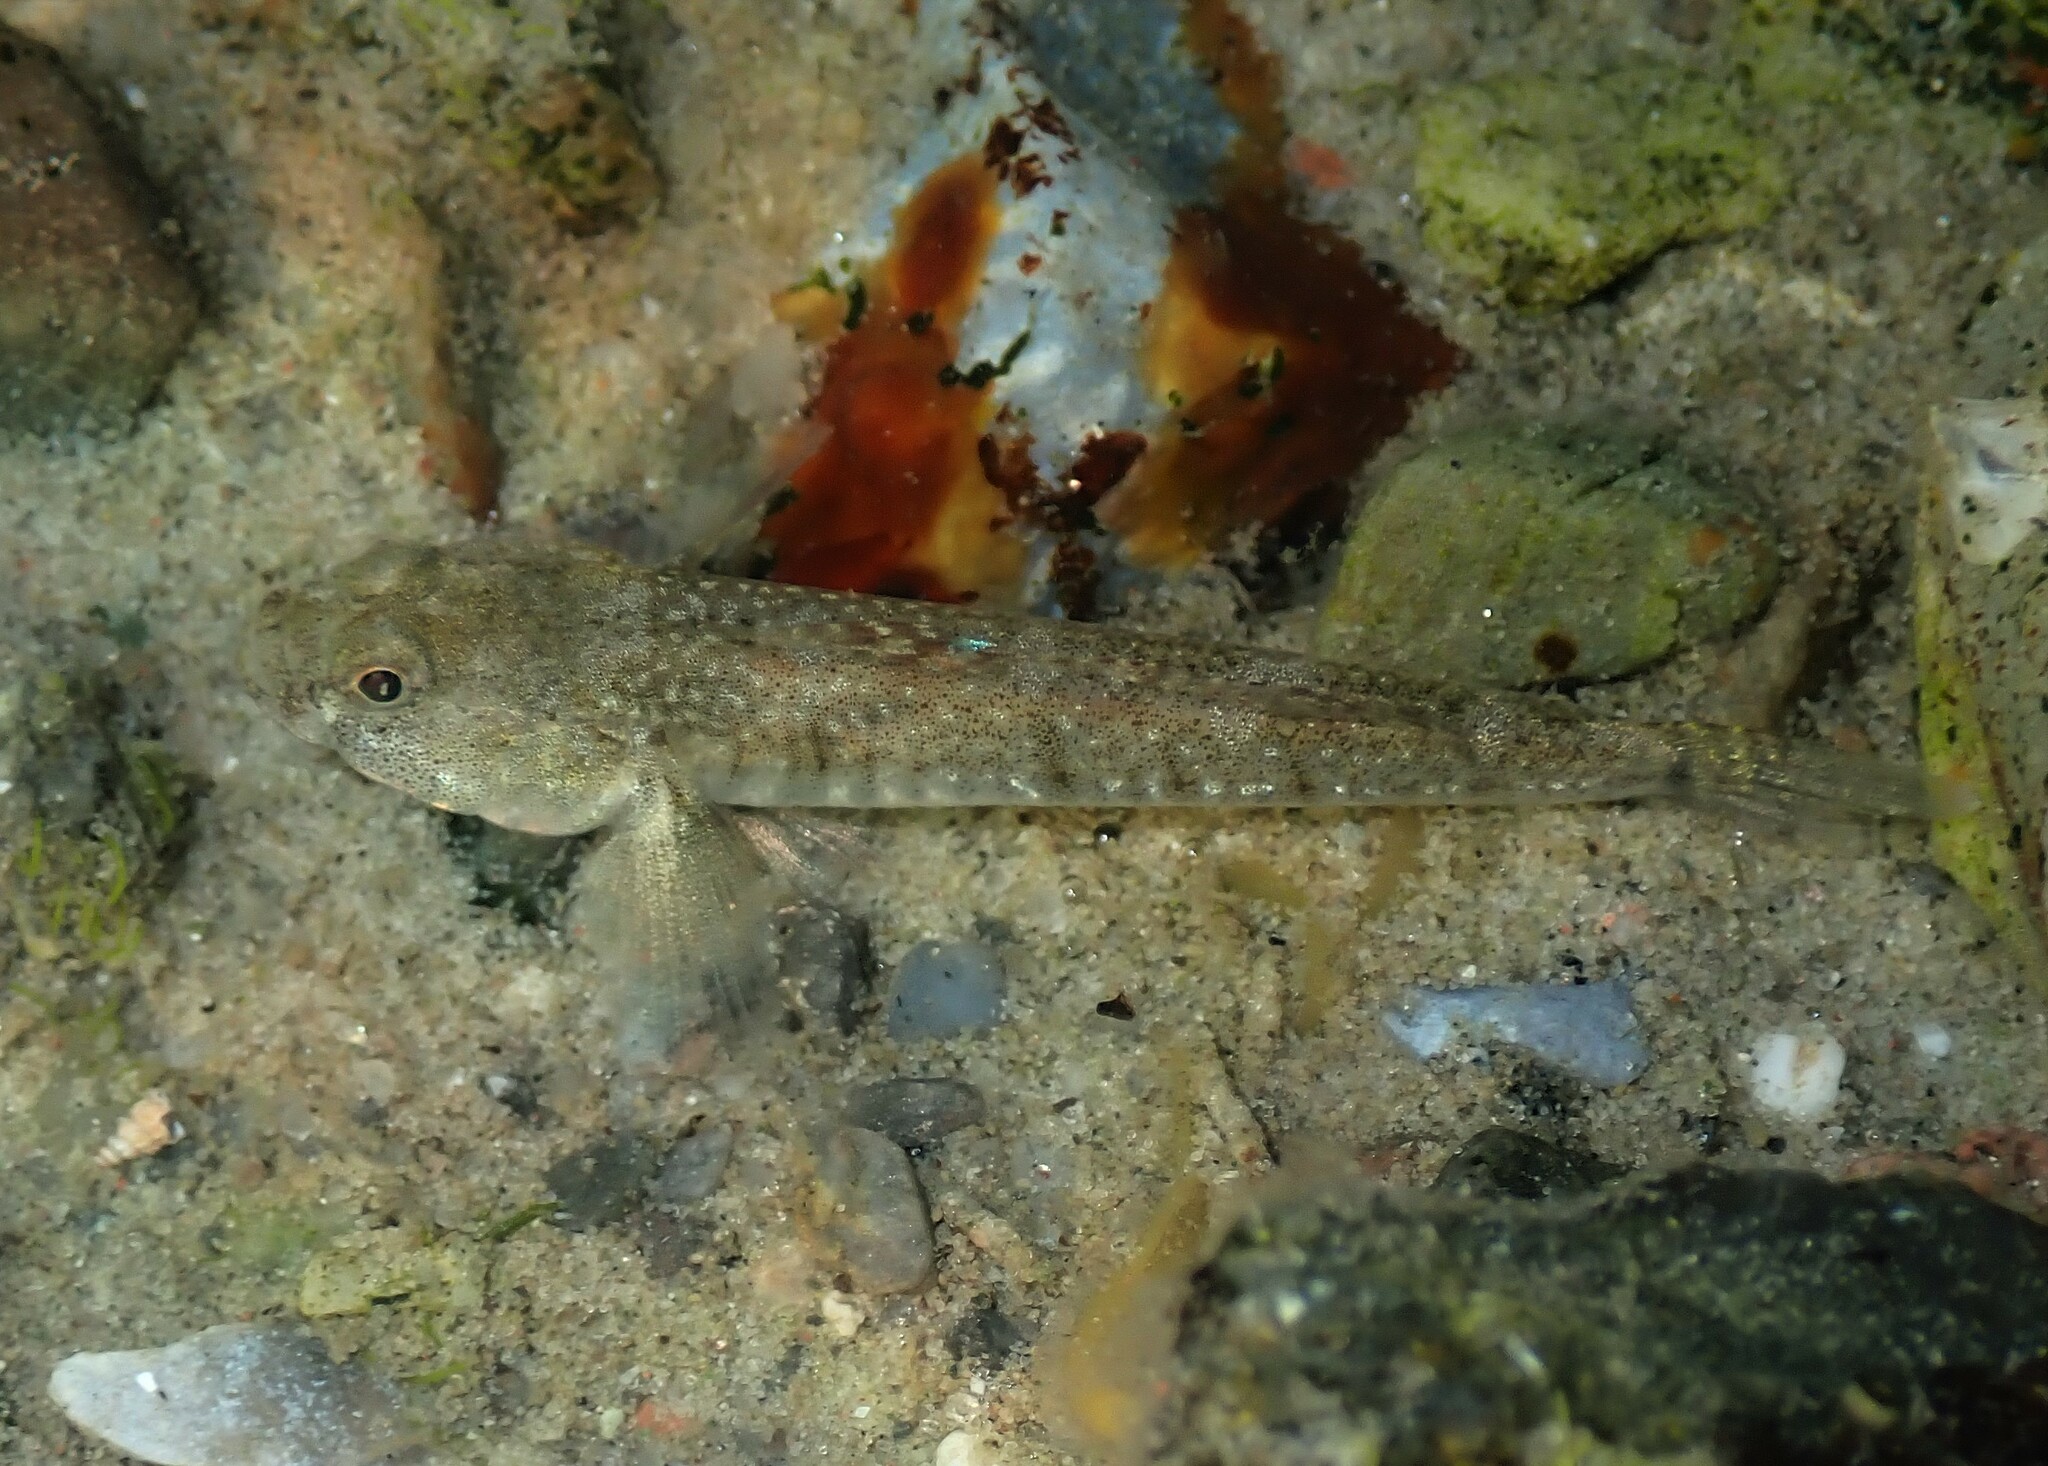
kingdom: Animalia
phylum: Chordata
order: Perciformes
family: Gobiidae
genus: Pomatoschistus
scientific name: Pomatoschistus microps
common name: Common goby
